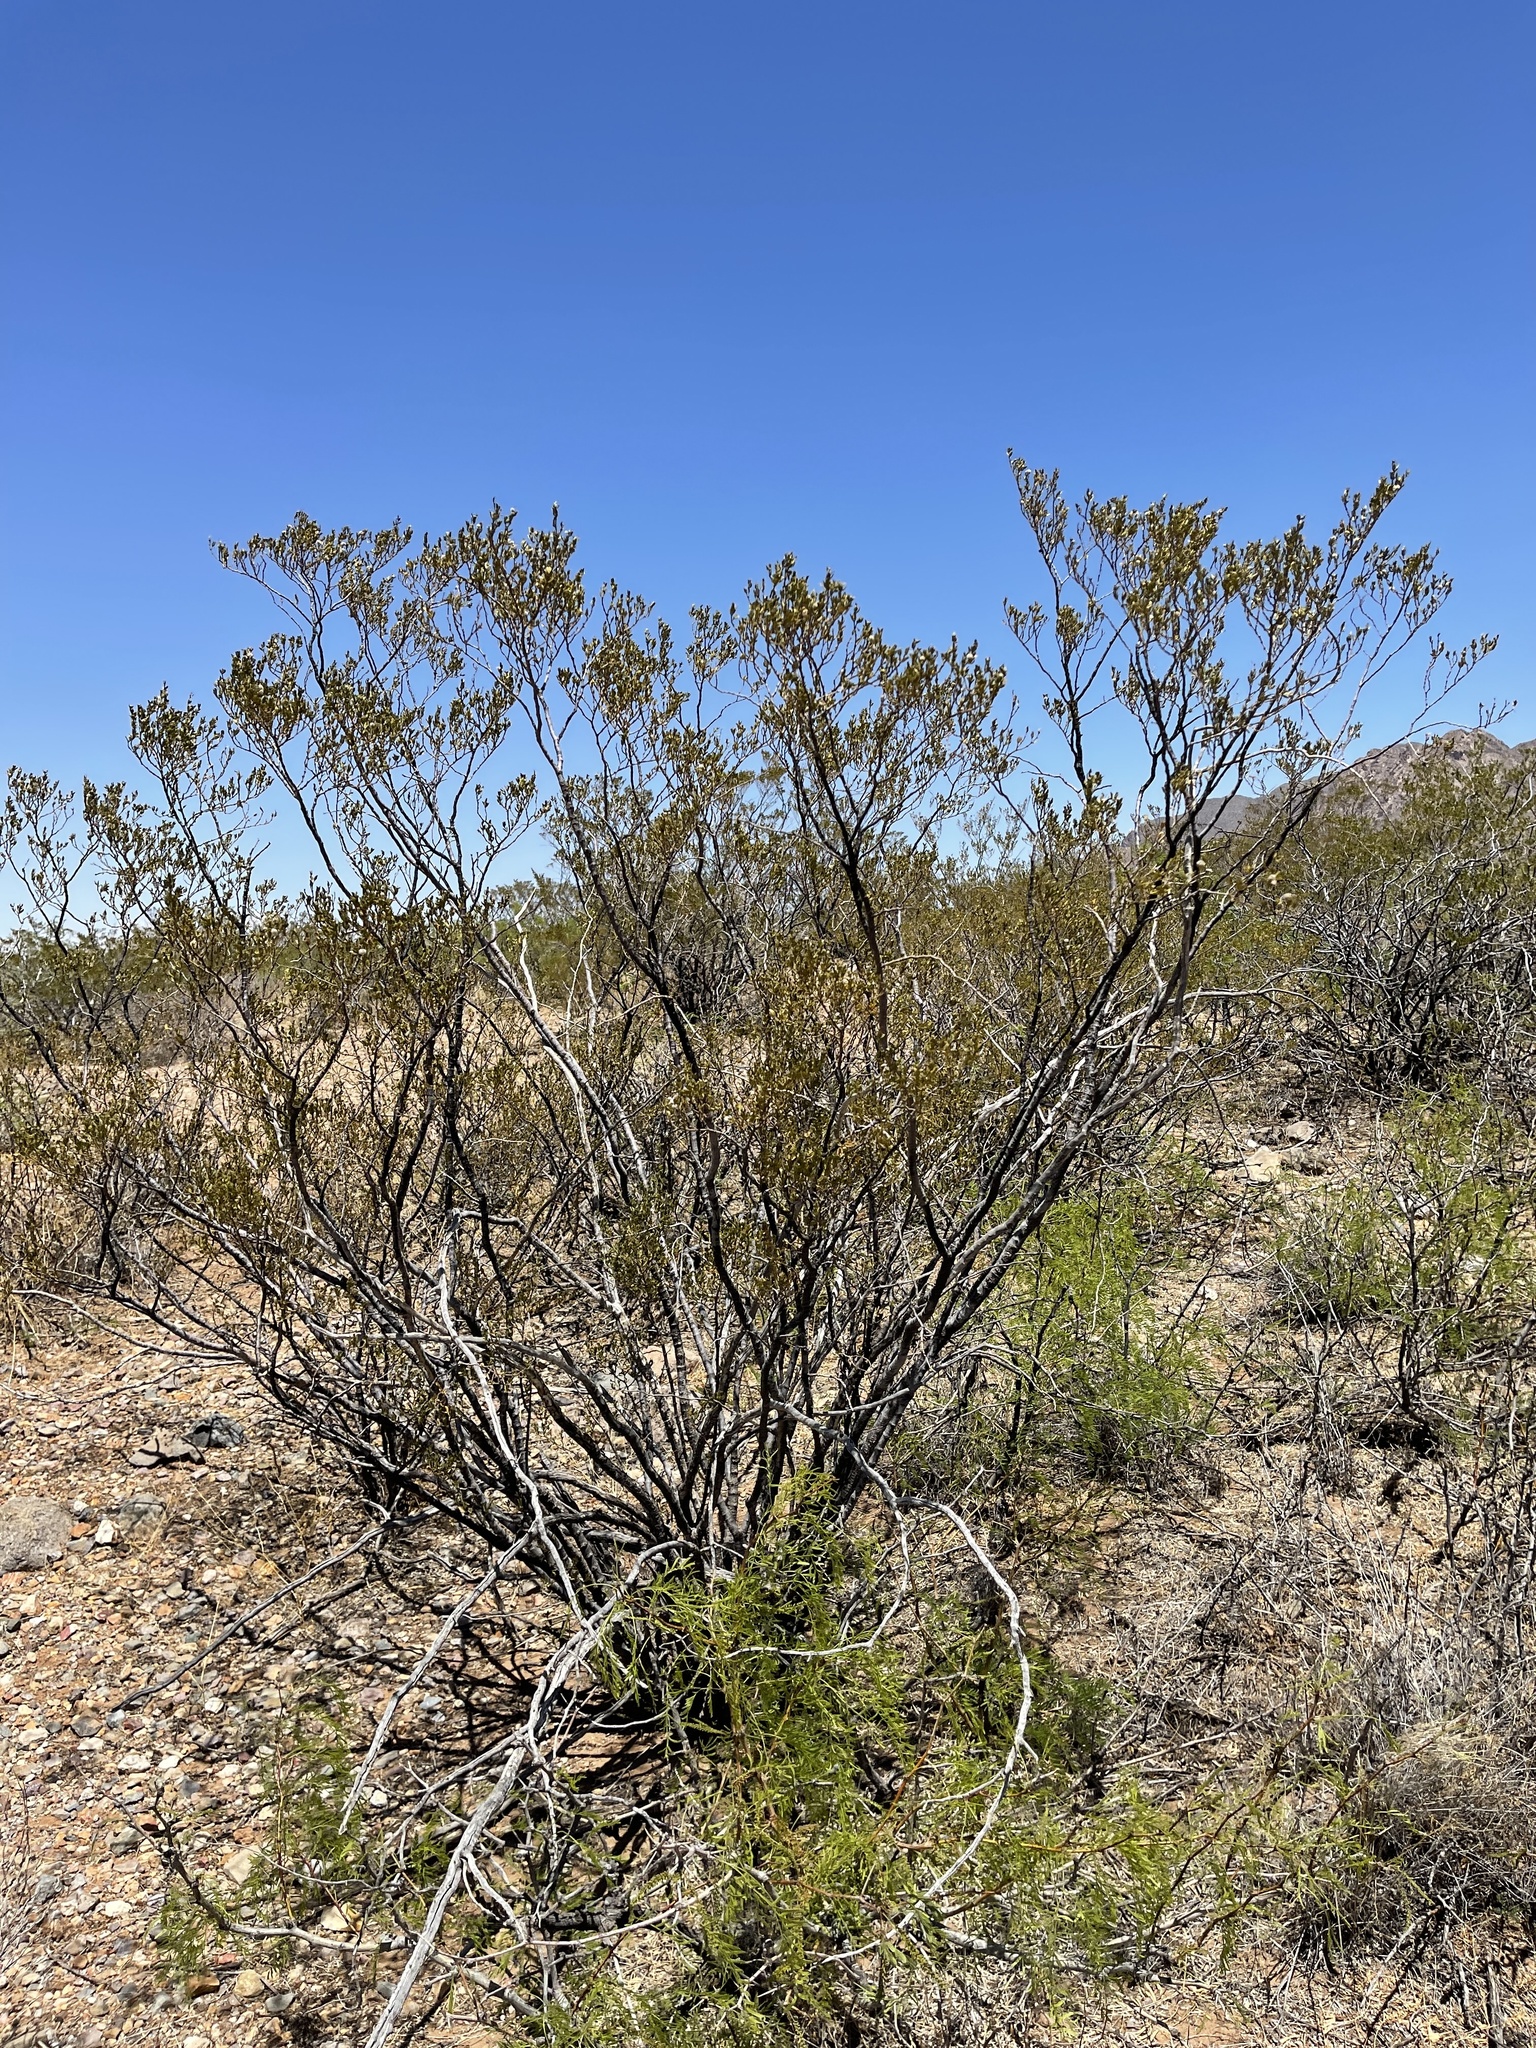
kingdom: Plantae
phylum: Tracheophyta
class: Magnoliopsida
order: Zygophyllales
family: Zygophyllaceae
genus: Larrea
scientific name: Larrea tridentata
